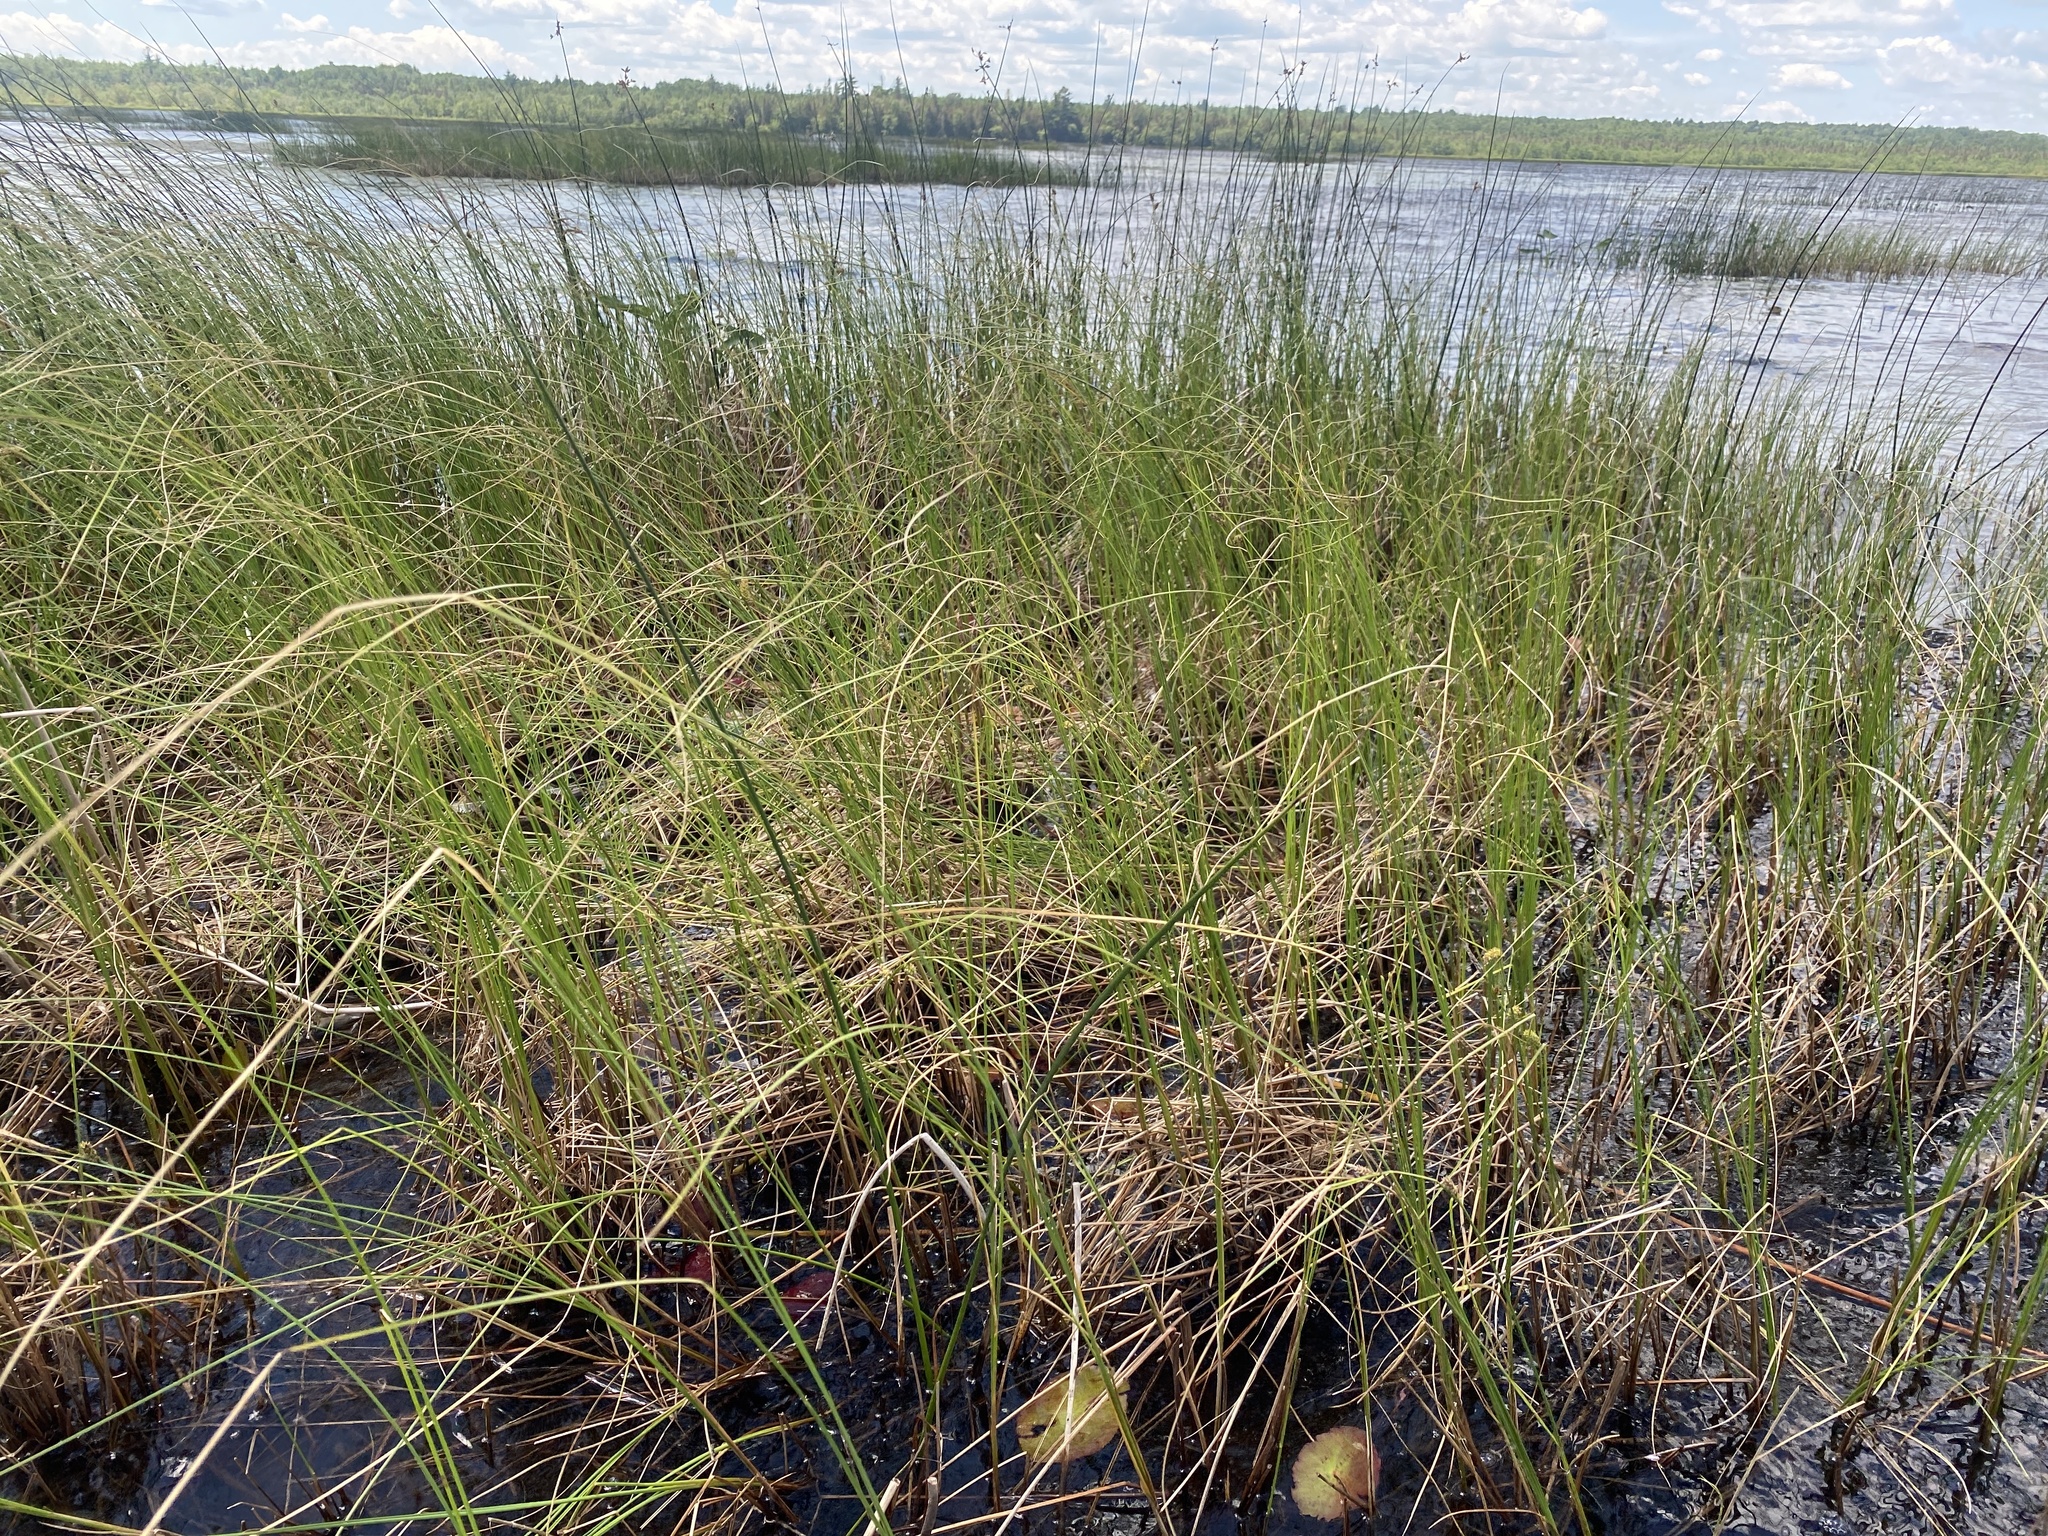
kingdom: Plantae
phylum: Tracheophyta
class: Liliopsida
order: Poales
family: Cyperaceae
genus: Carex
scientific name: Carex lasiocarpa
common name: Slender sedge
